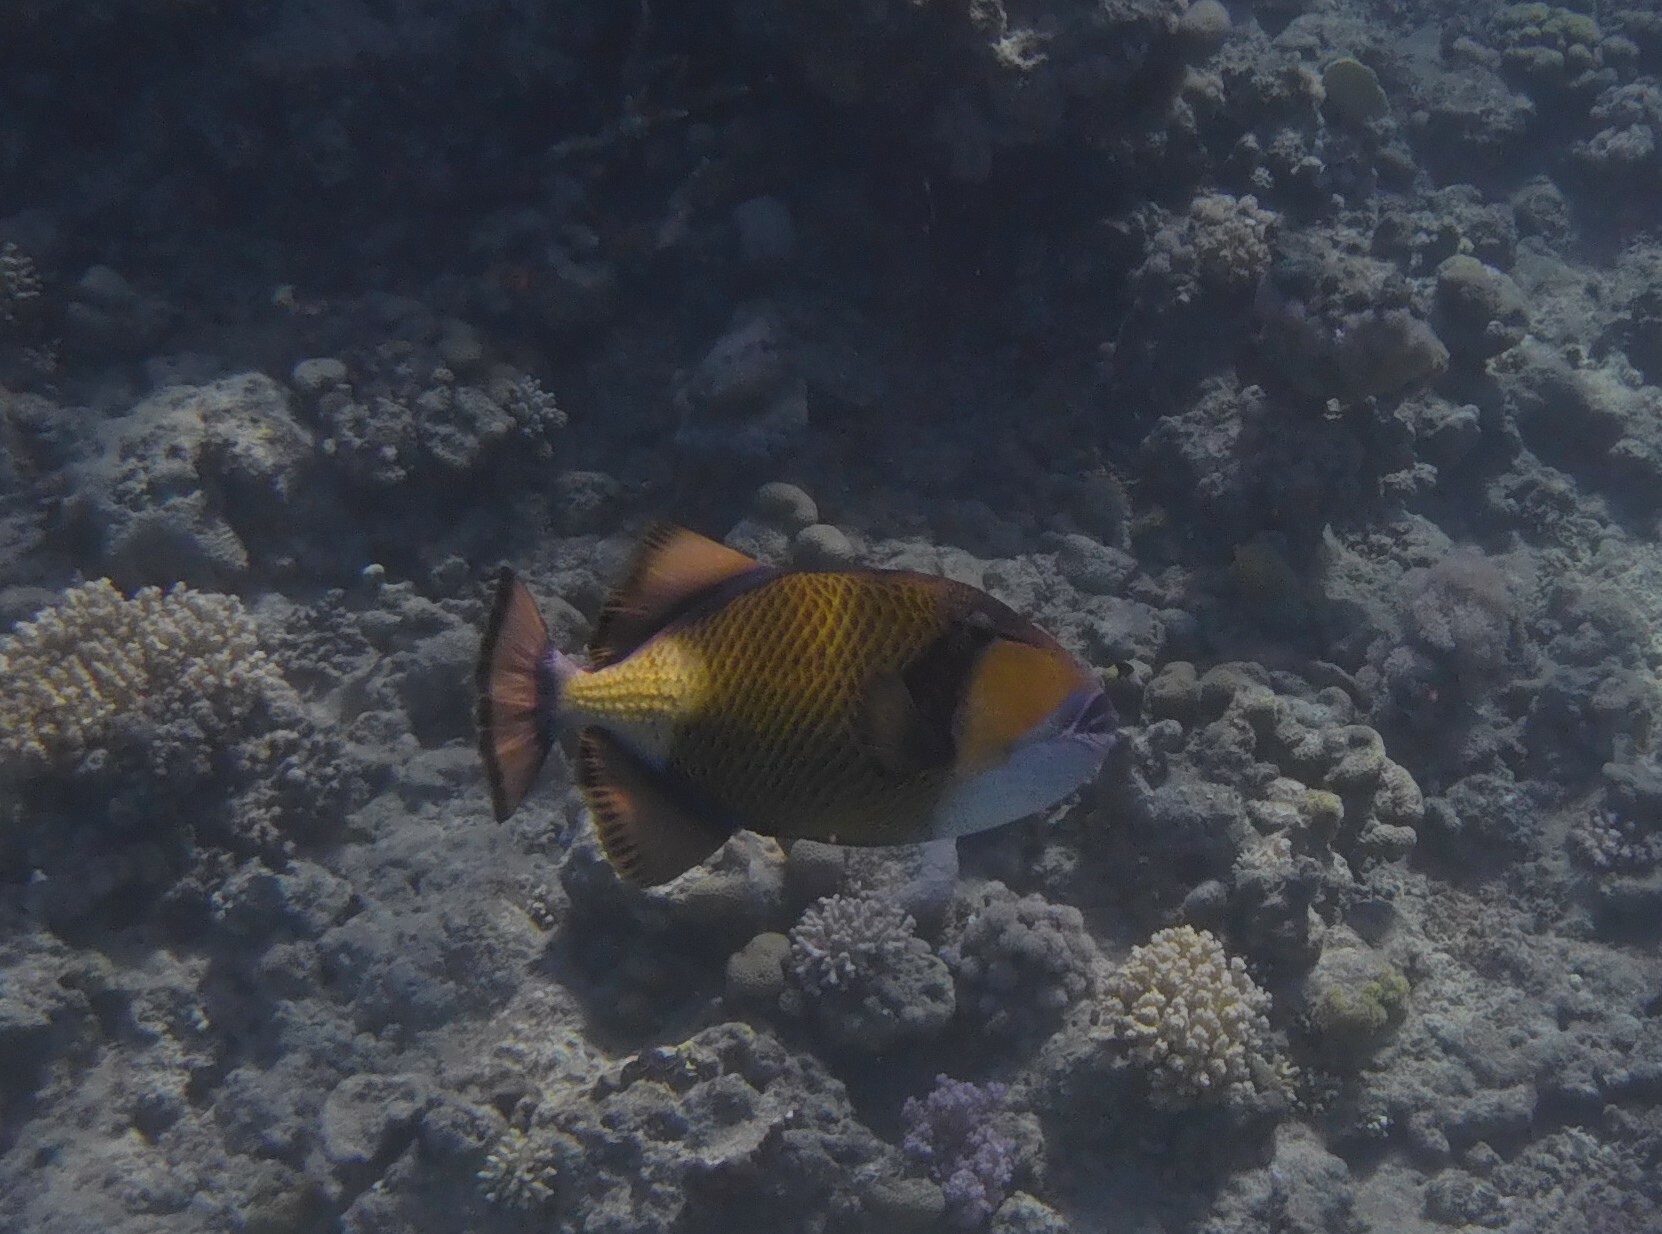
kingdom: Animalia
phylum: Chordata
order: Tetraodontiformes
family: Balistidae
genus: Balistoides
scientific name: Balistoides viridescens
